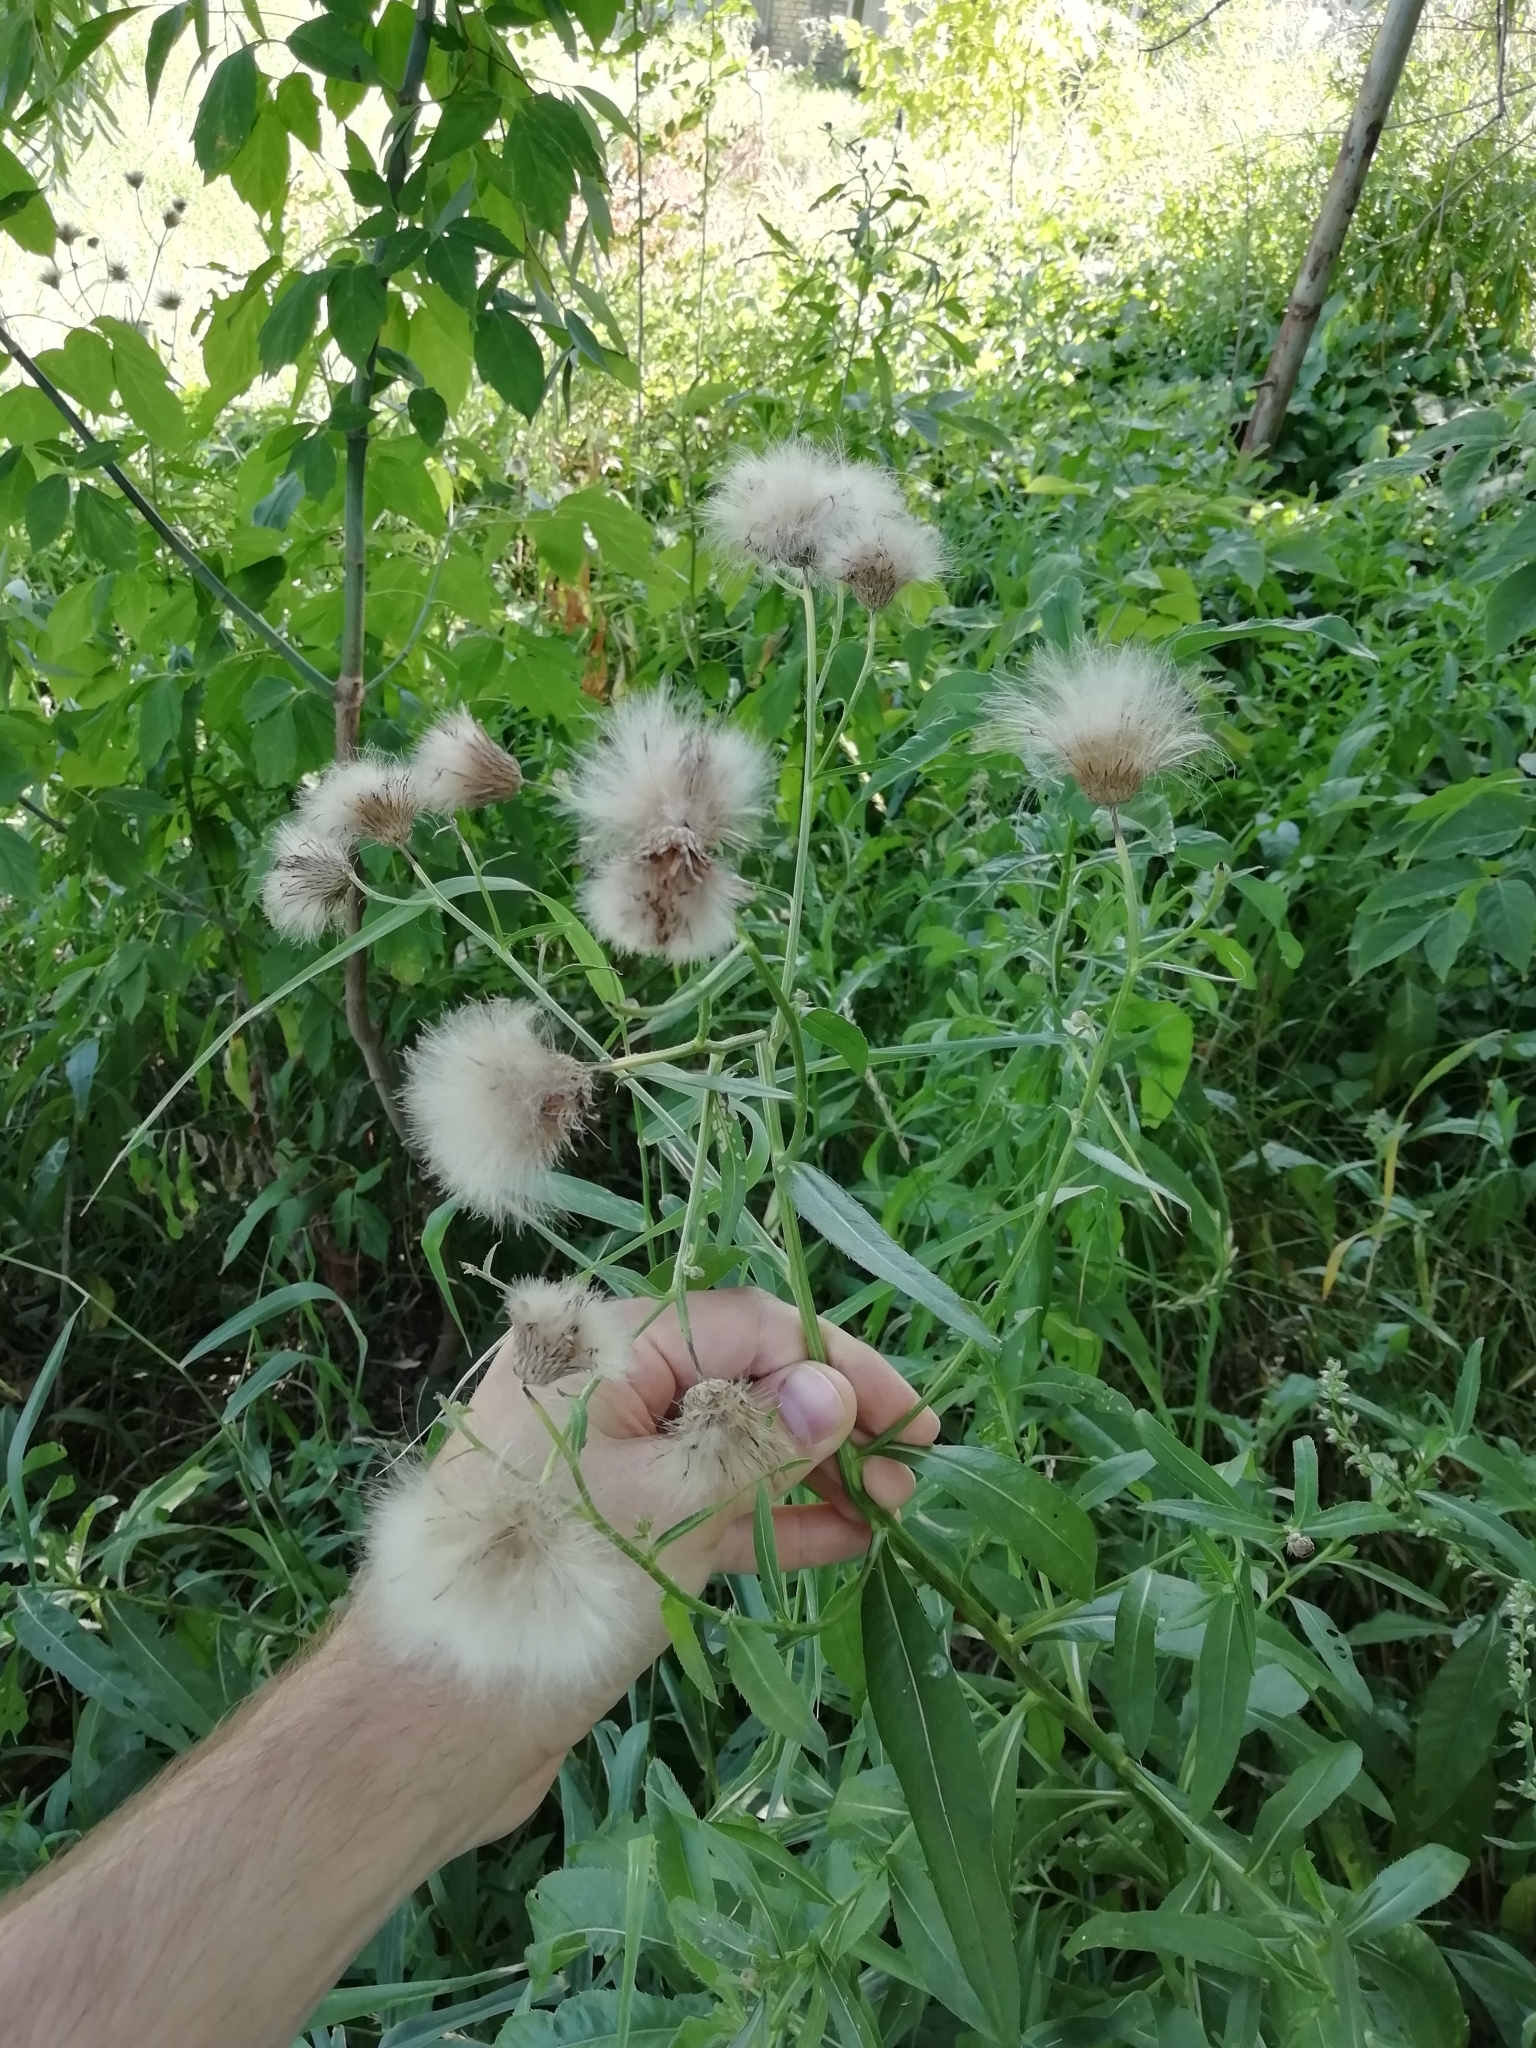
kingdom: Plantae
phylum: Tracheophyta
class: Magnoliopsida
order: Asterales
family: Asteraceae
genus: Cirsium
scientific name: Cirsium arvense
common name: Creeping thistle
